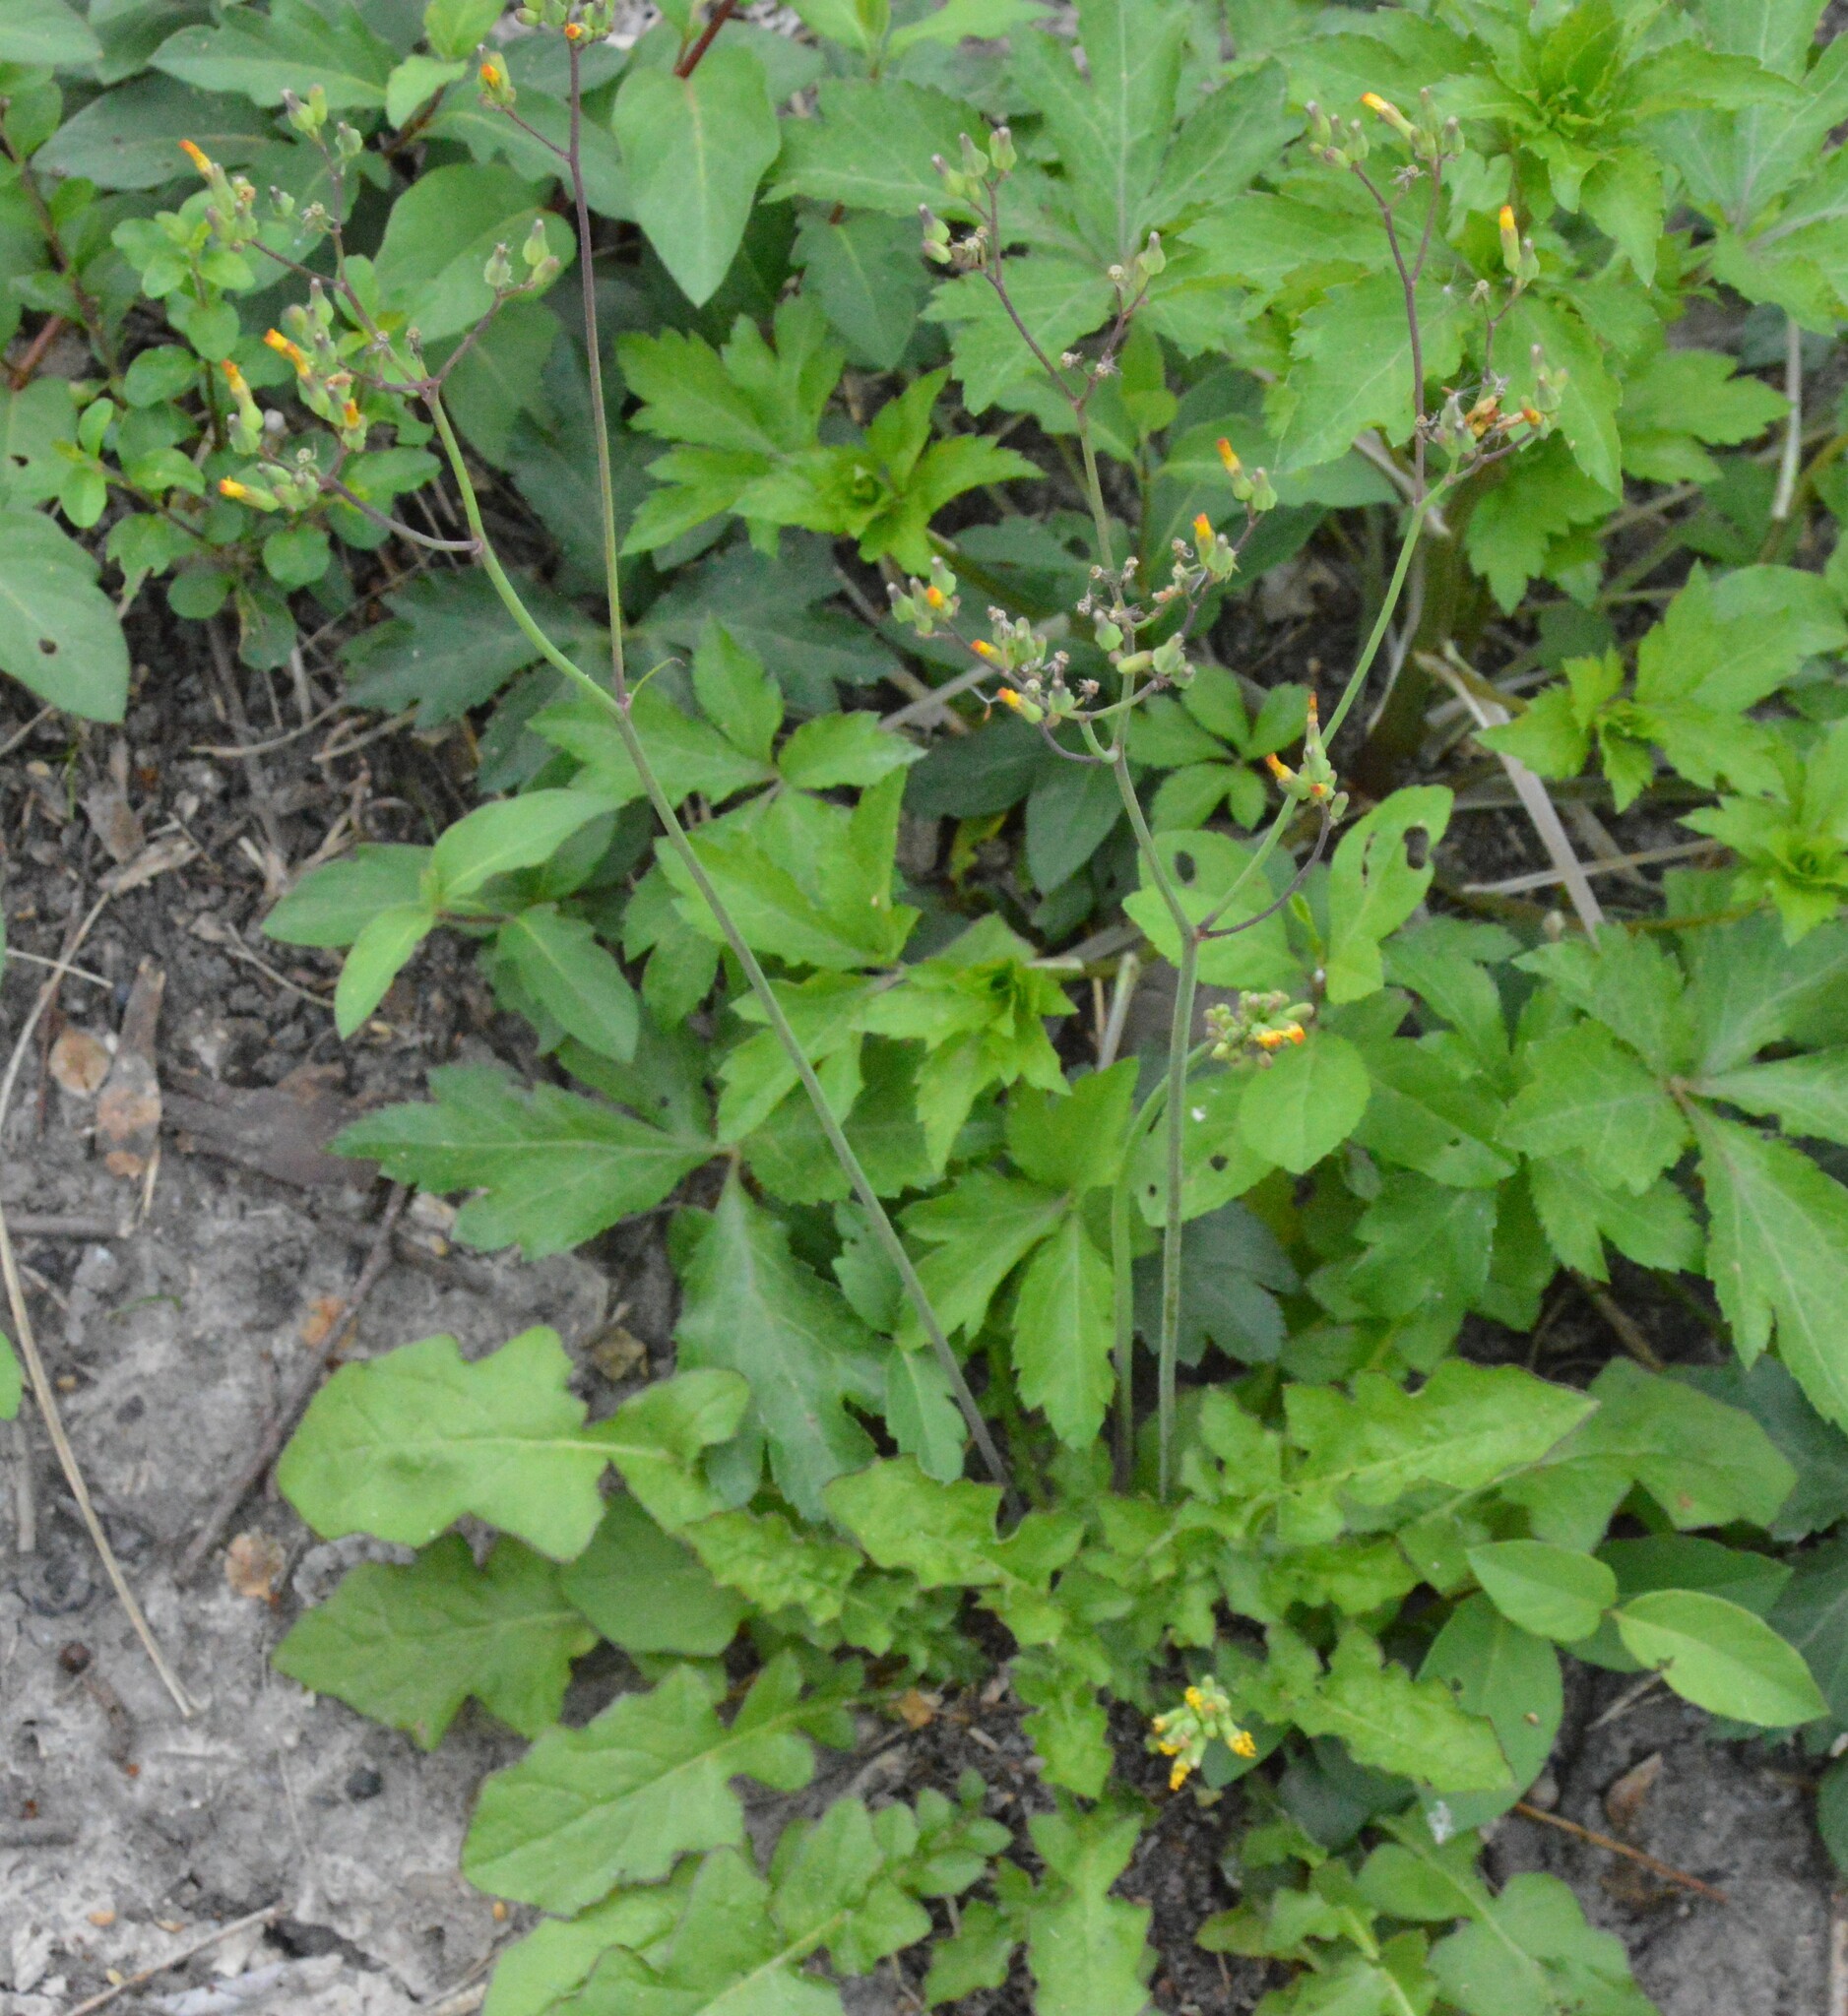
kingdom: Plantae
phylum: Tracheophyta
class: Magnoliopsida
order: Asterales
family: Asteraceae
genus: Youngia
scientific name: Youngia japonica
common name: Oriental false hawksbeard
